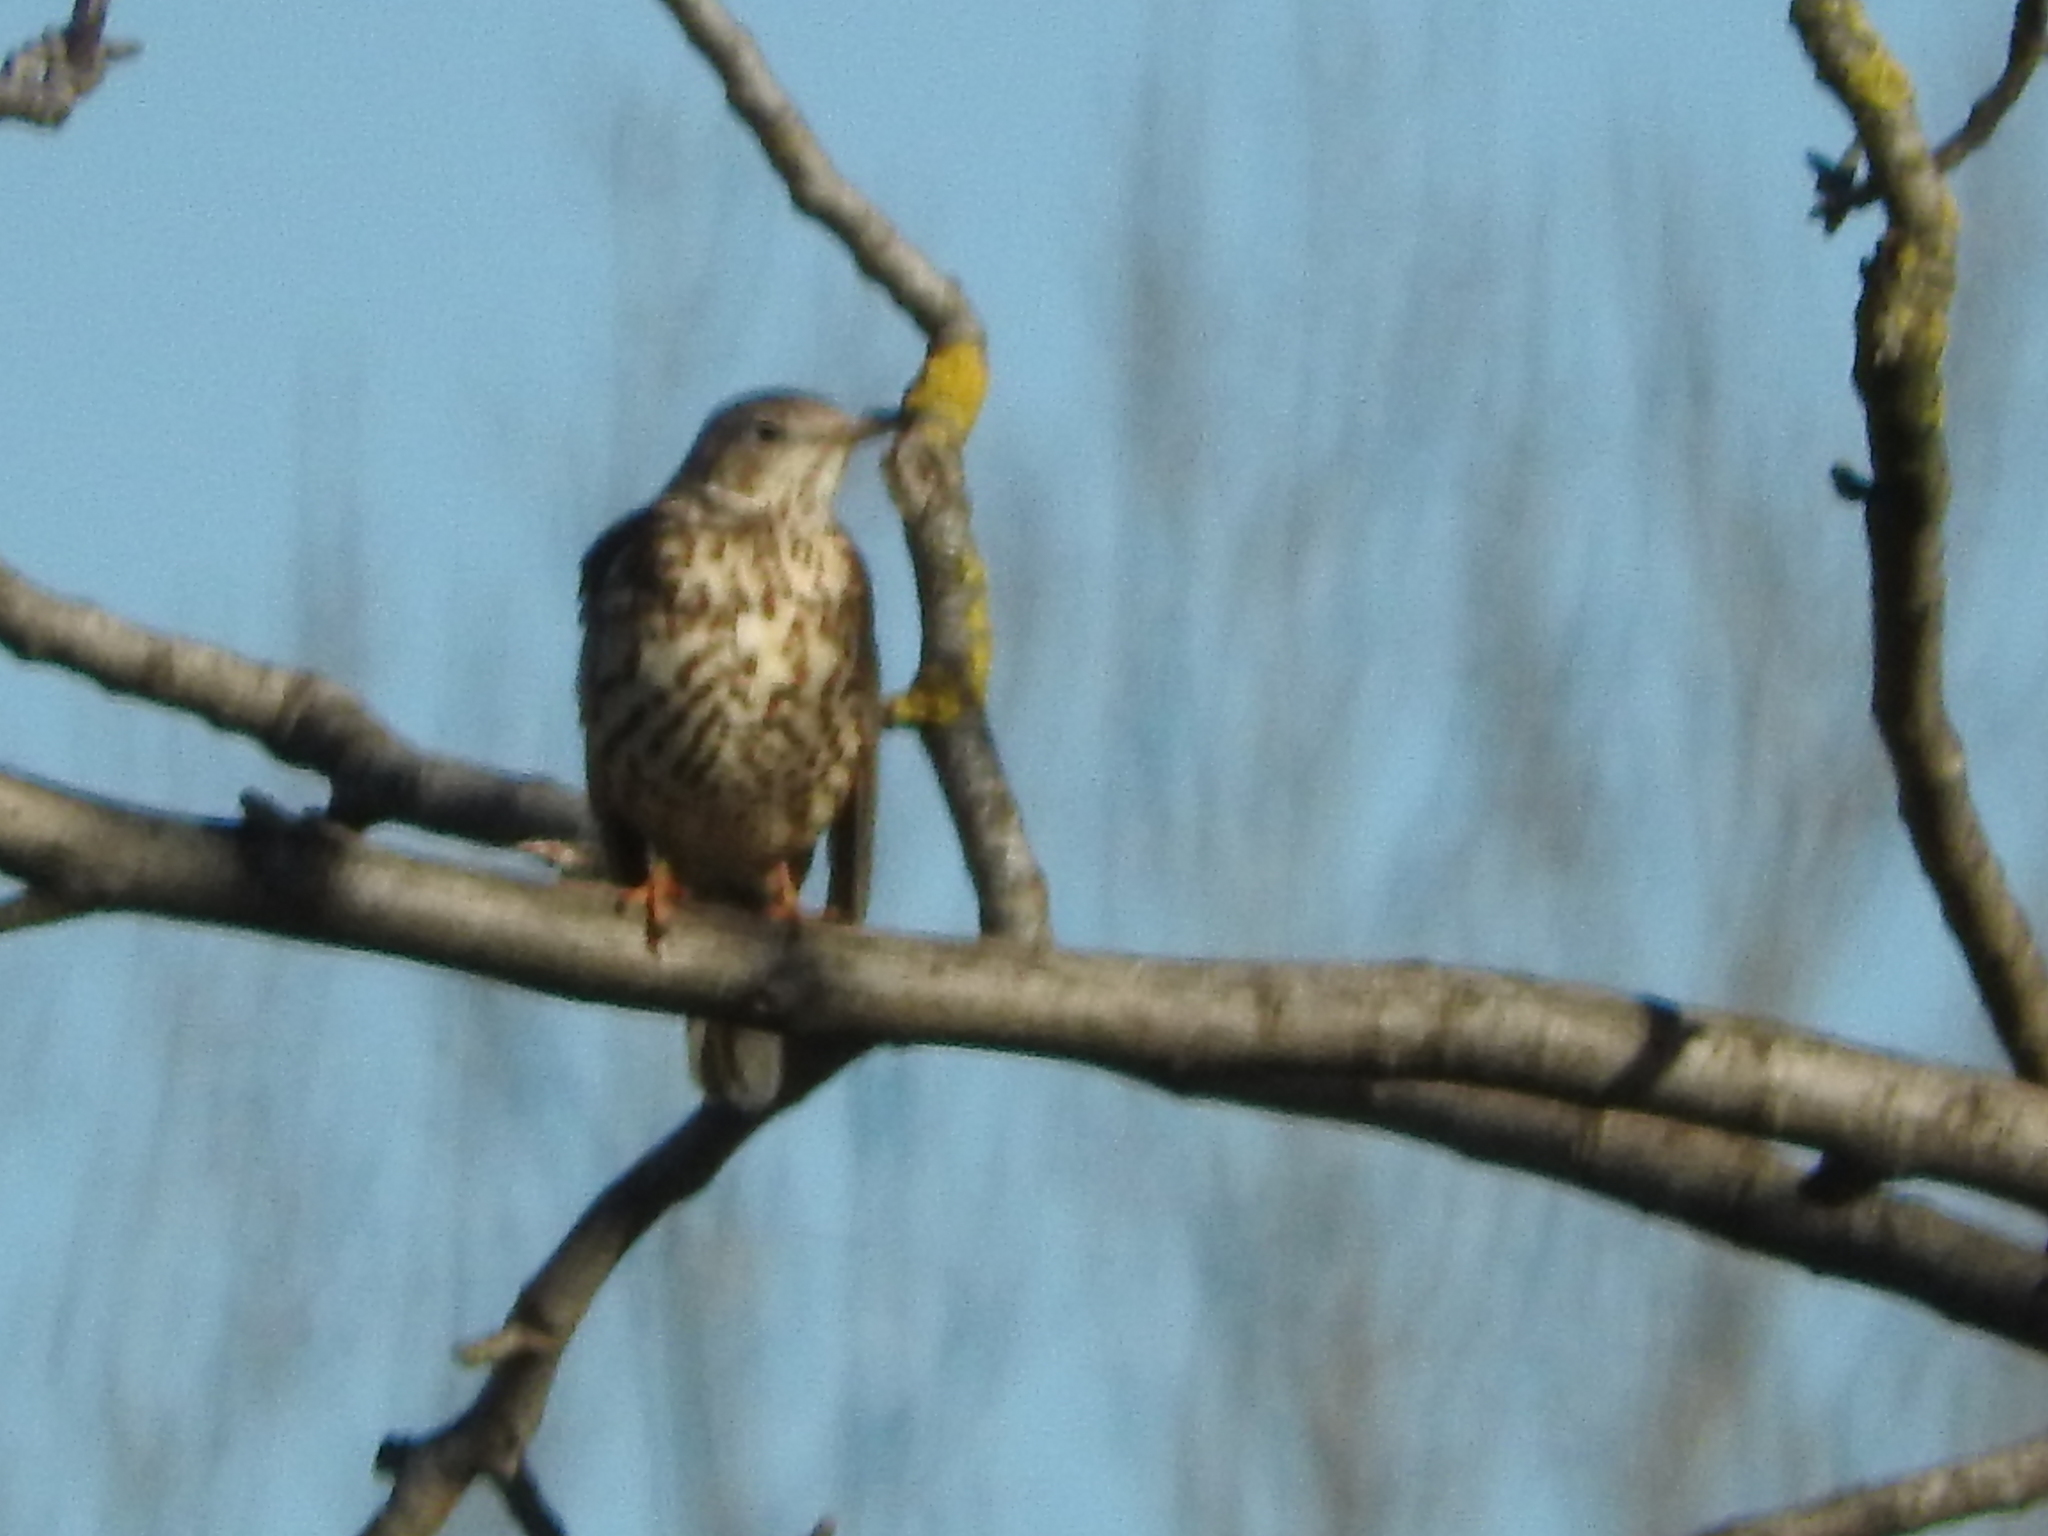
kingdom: Animalia
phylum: Chordata
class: Aves
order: Passeriformes
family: Turdidae
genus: Turdus
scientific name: Turdus viscivorus
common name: Mistle thrush
